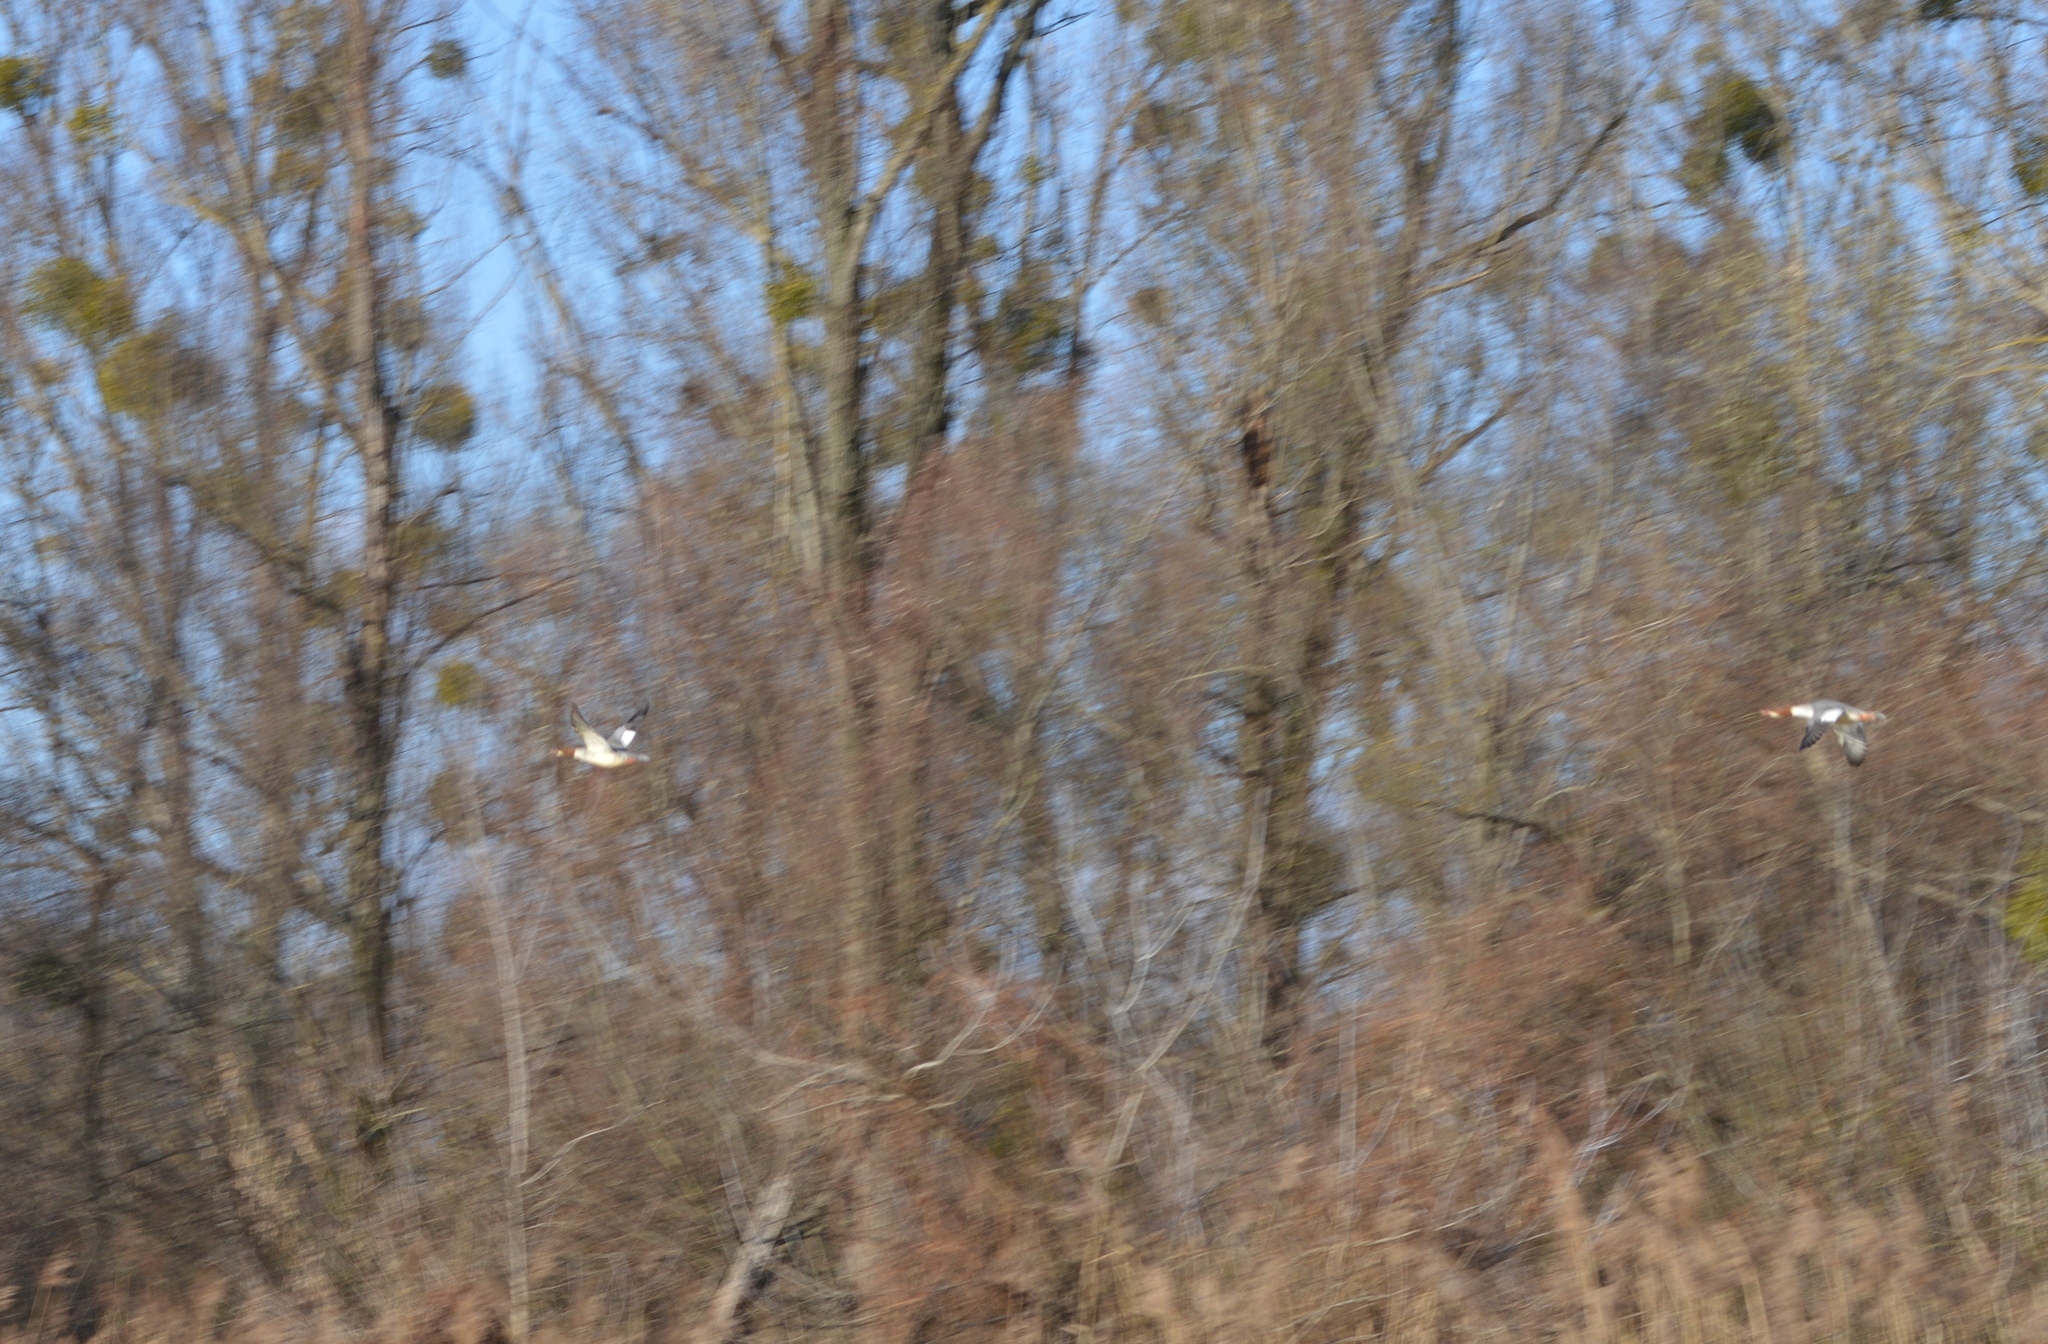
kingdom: Animalia
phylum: Chordata
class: Aves
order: Anseriformes
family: Anatidae
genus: Mergus
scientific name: Mergus merganser
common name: Common merganser
